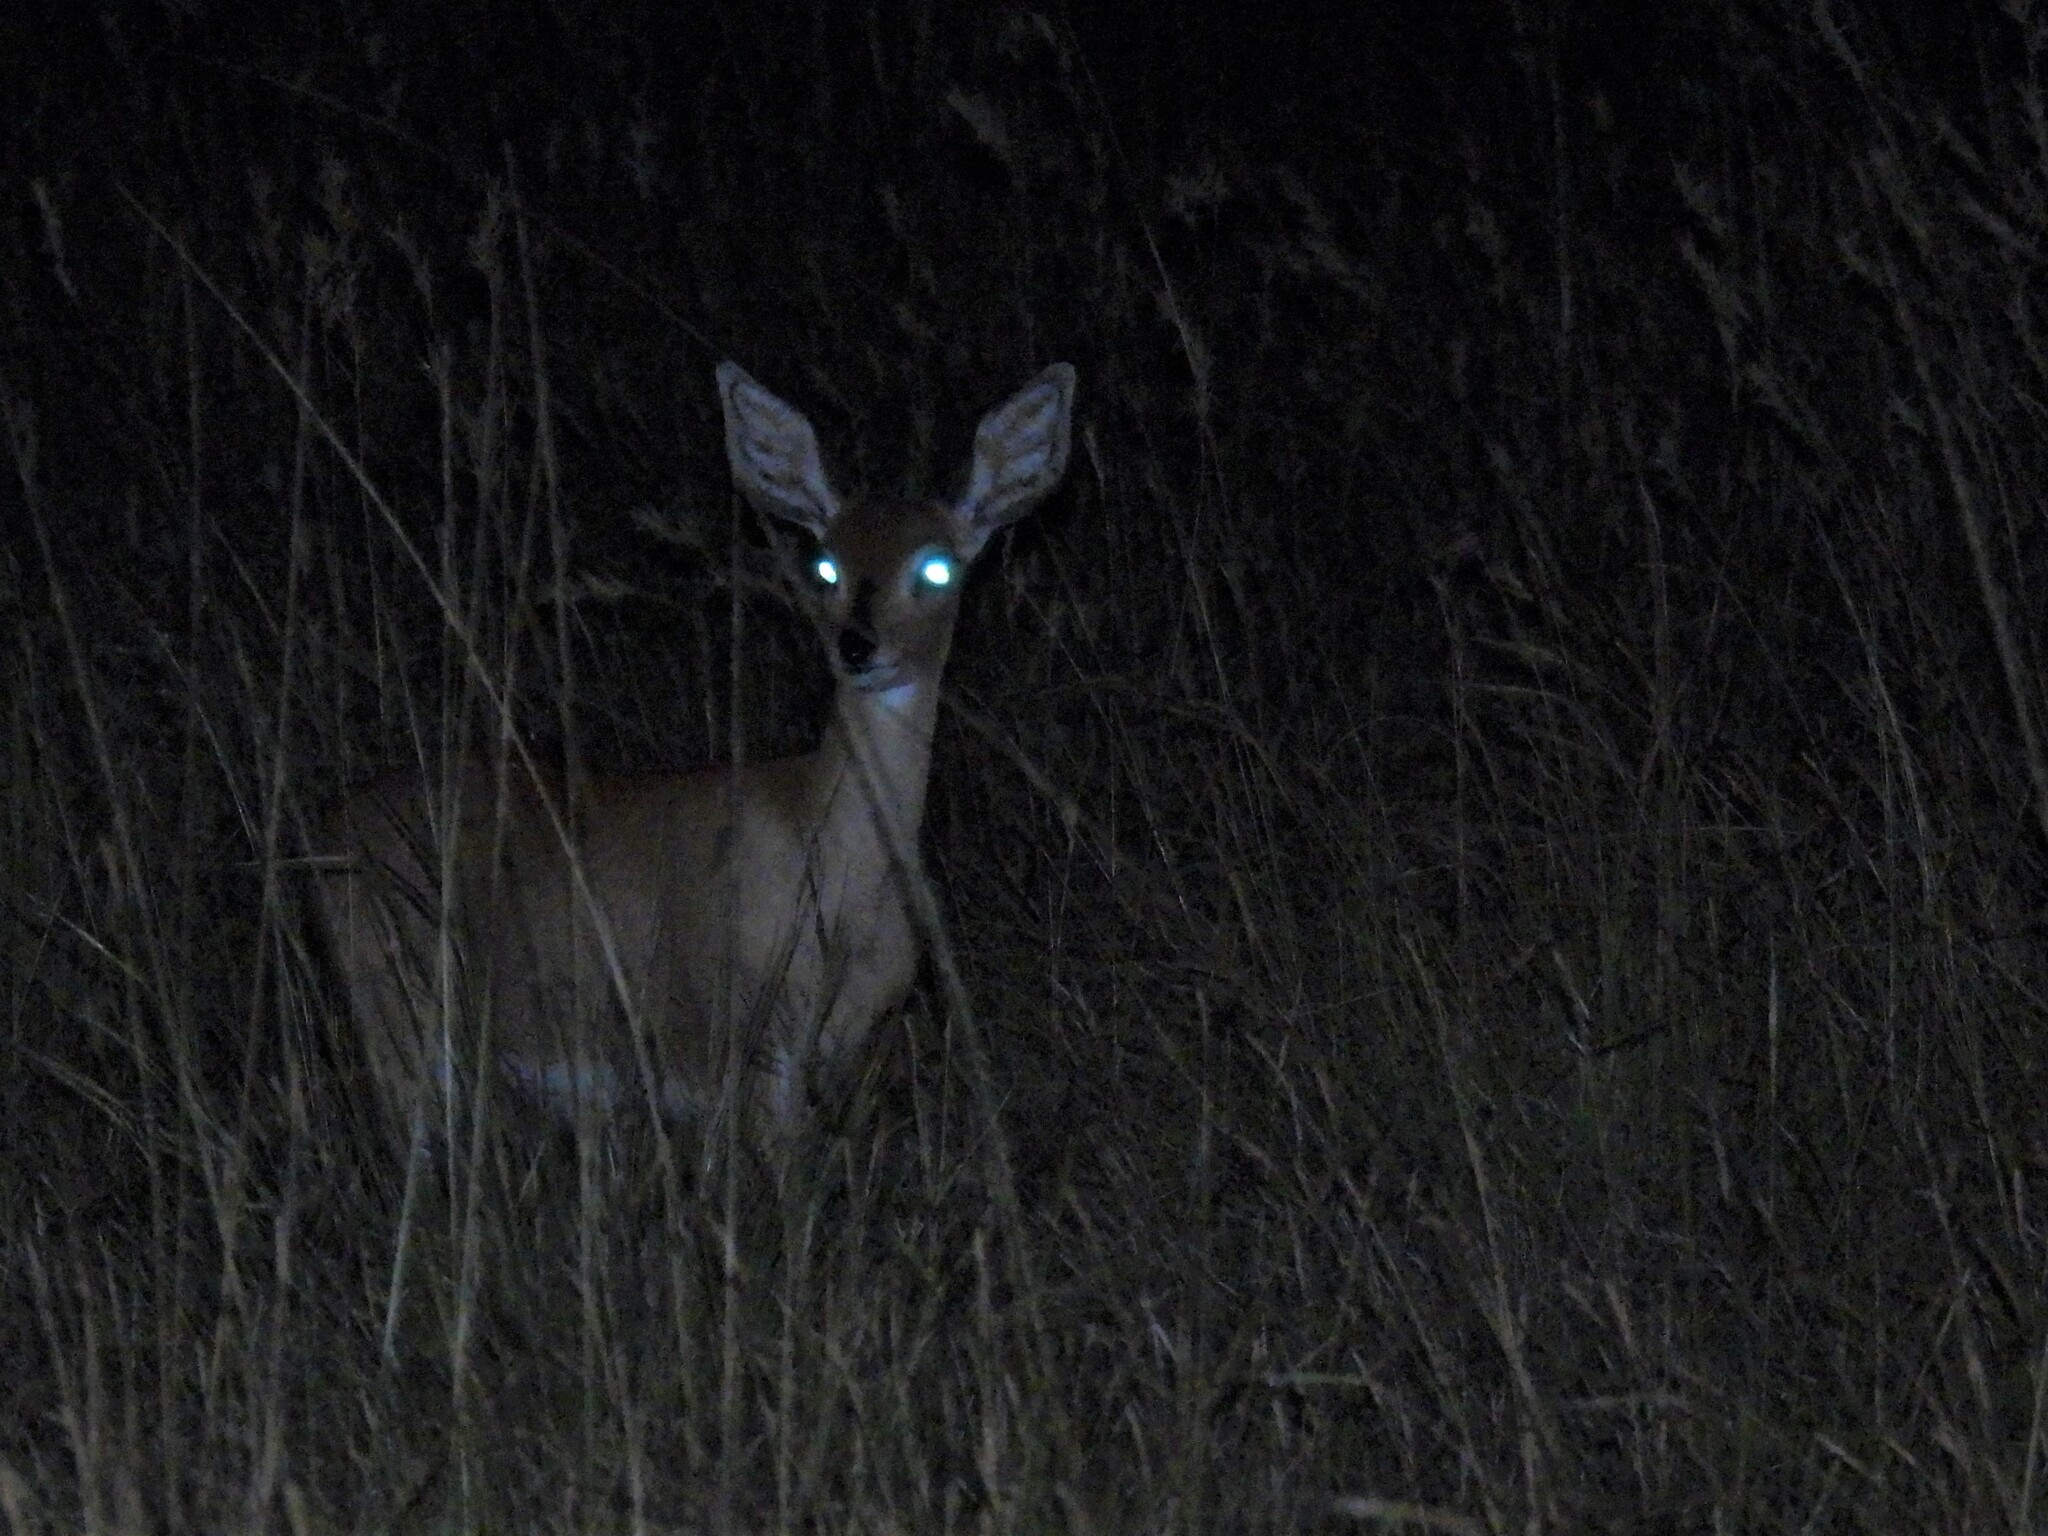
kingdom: Animalia
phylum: Chordata
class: Mammalia
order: Artiodactyla
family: Bovidae
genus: Raphicerus
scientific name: Raphicerus campestris
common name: Steenbok
